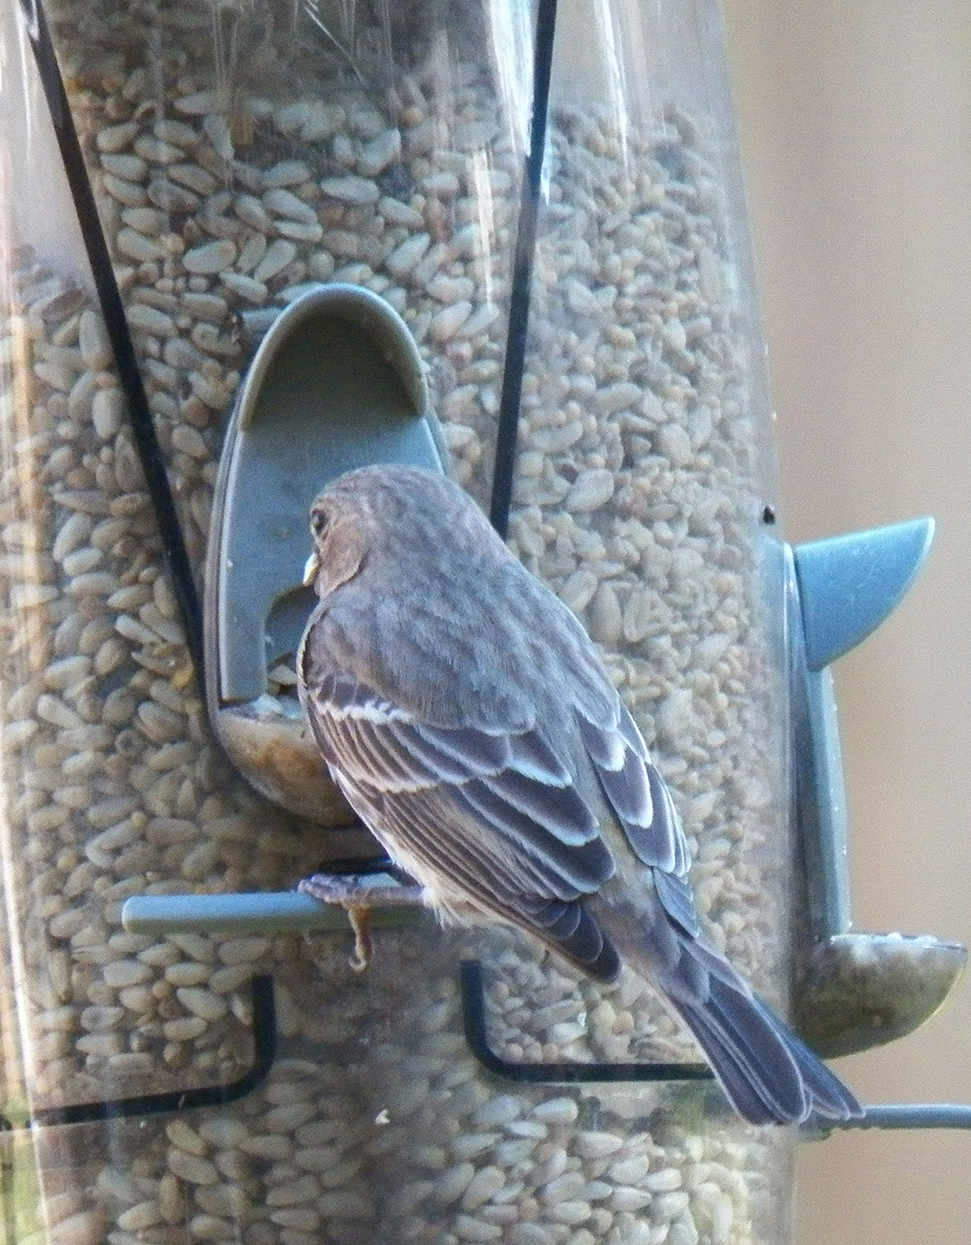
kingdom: Animalia
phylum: Chordata
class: Aves
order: Passeriformes
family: Fringillidae
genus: Haemorhous
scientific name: Haemorhous mexicanus
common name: House finch
